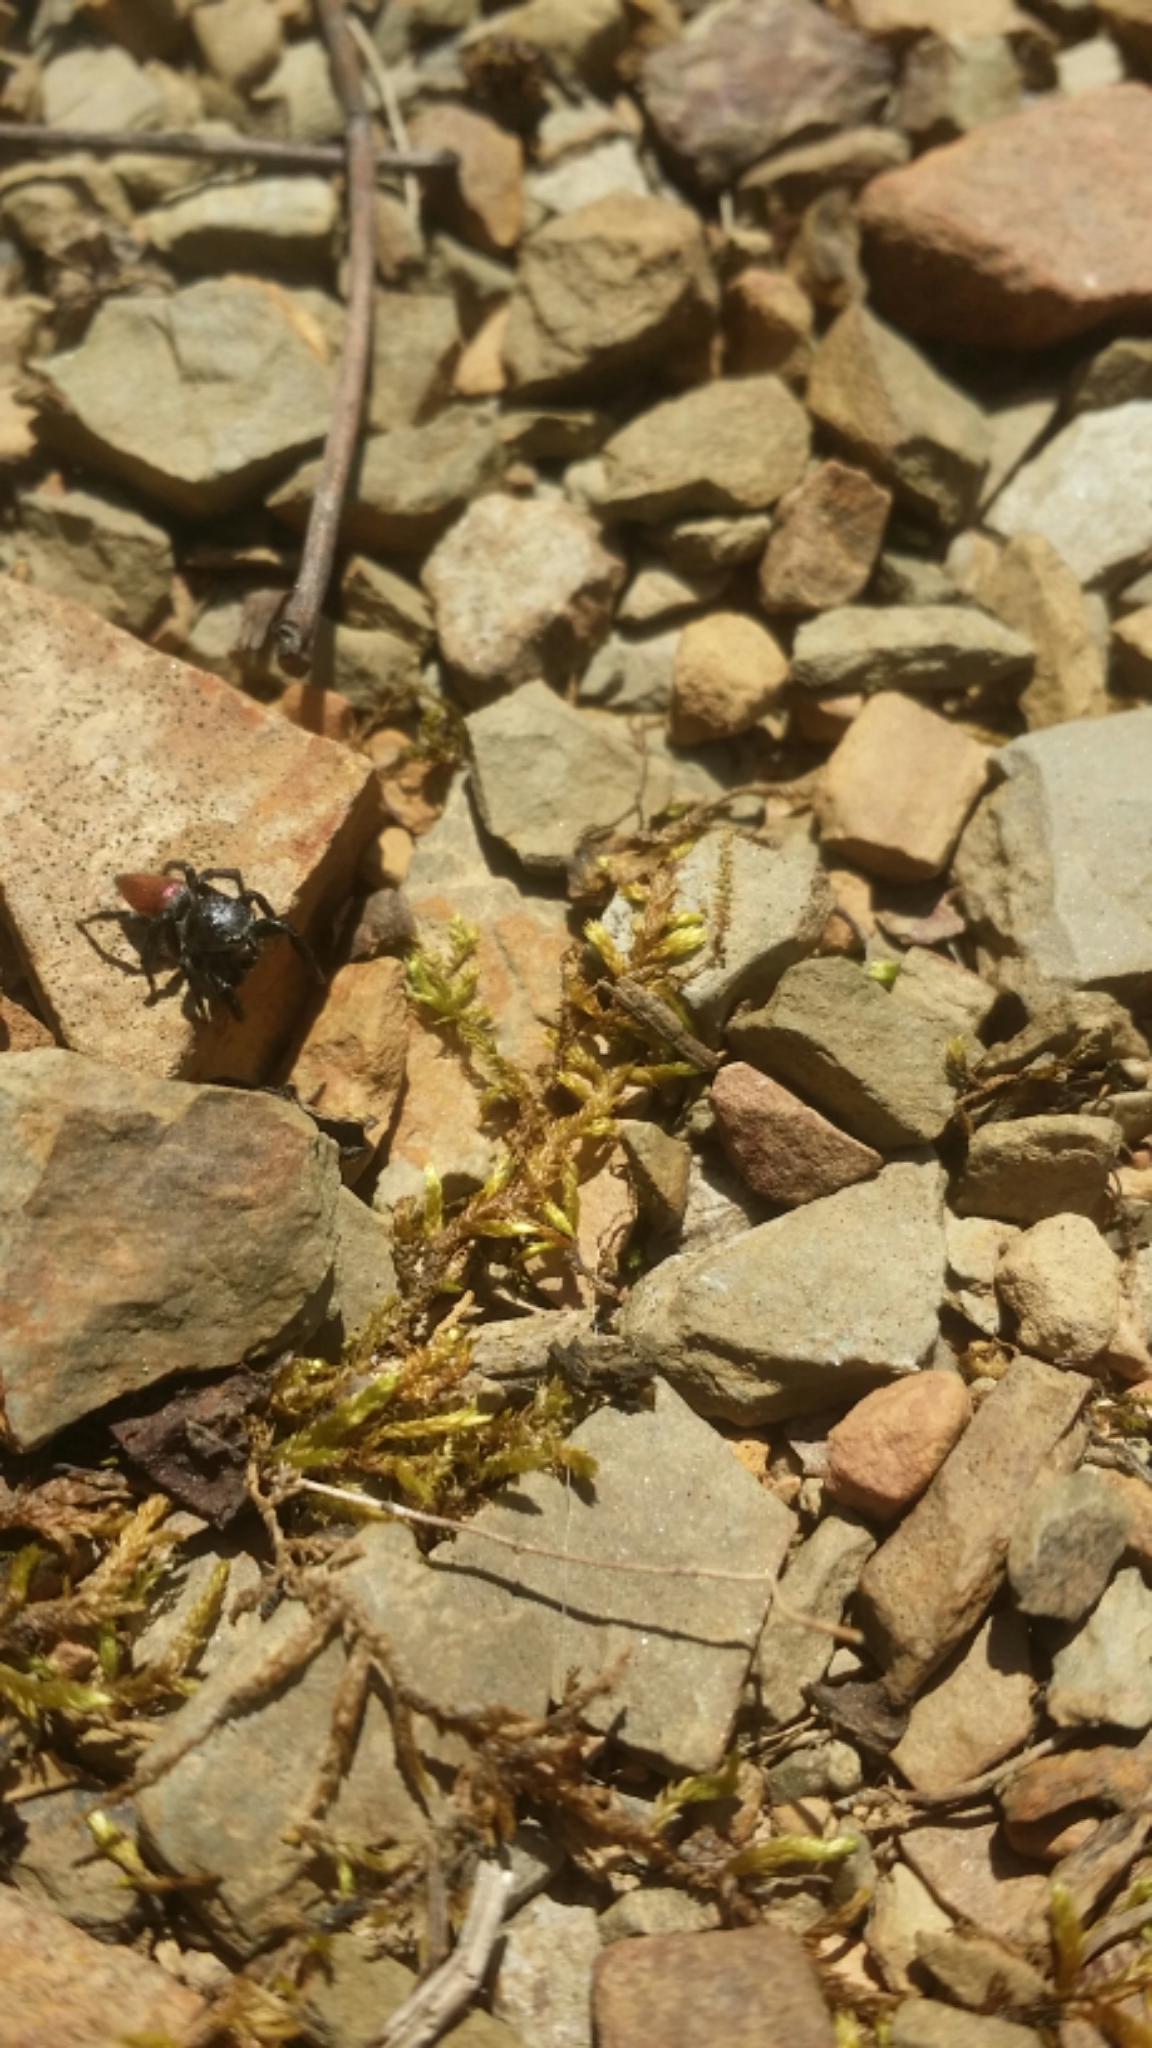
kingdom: Animalia
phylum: Arthropoda
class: Arachnida
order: Araneae
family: Salticidae
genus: Habronattus
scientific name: Habronattus decorus
